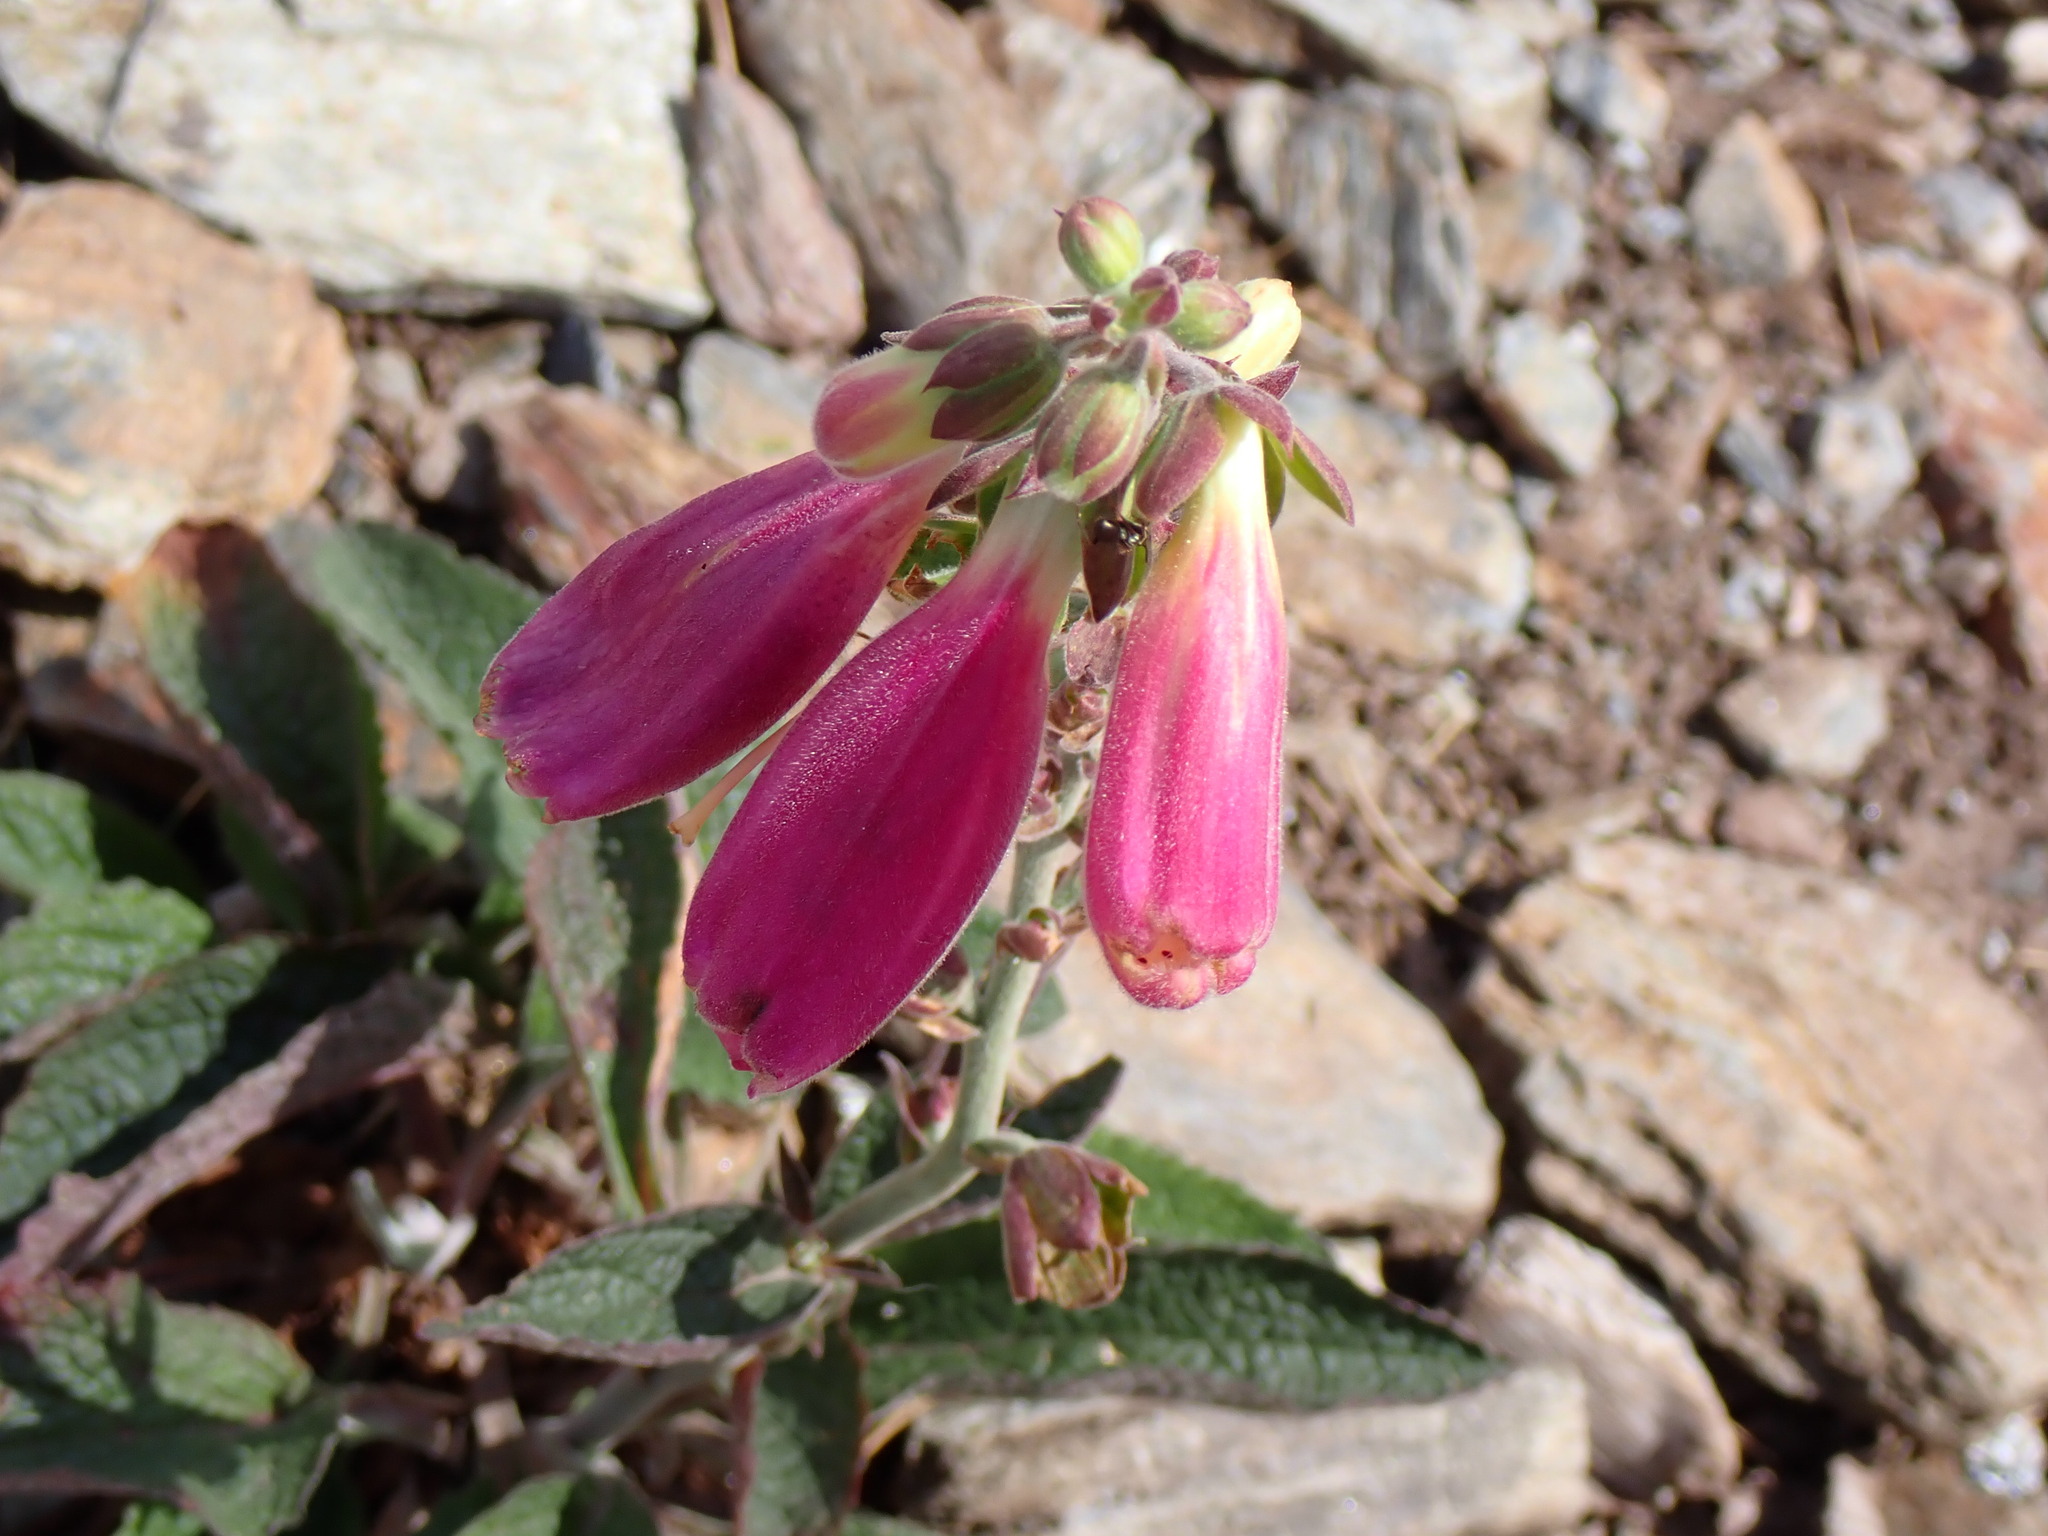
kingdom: Plantae
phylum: Tracheophyta
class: Magnoliopsida
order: Lamiales
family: Plantaginaceae
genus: Digitalis
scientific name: Digitalis purpurea
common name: Foxglove
